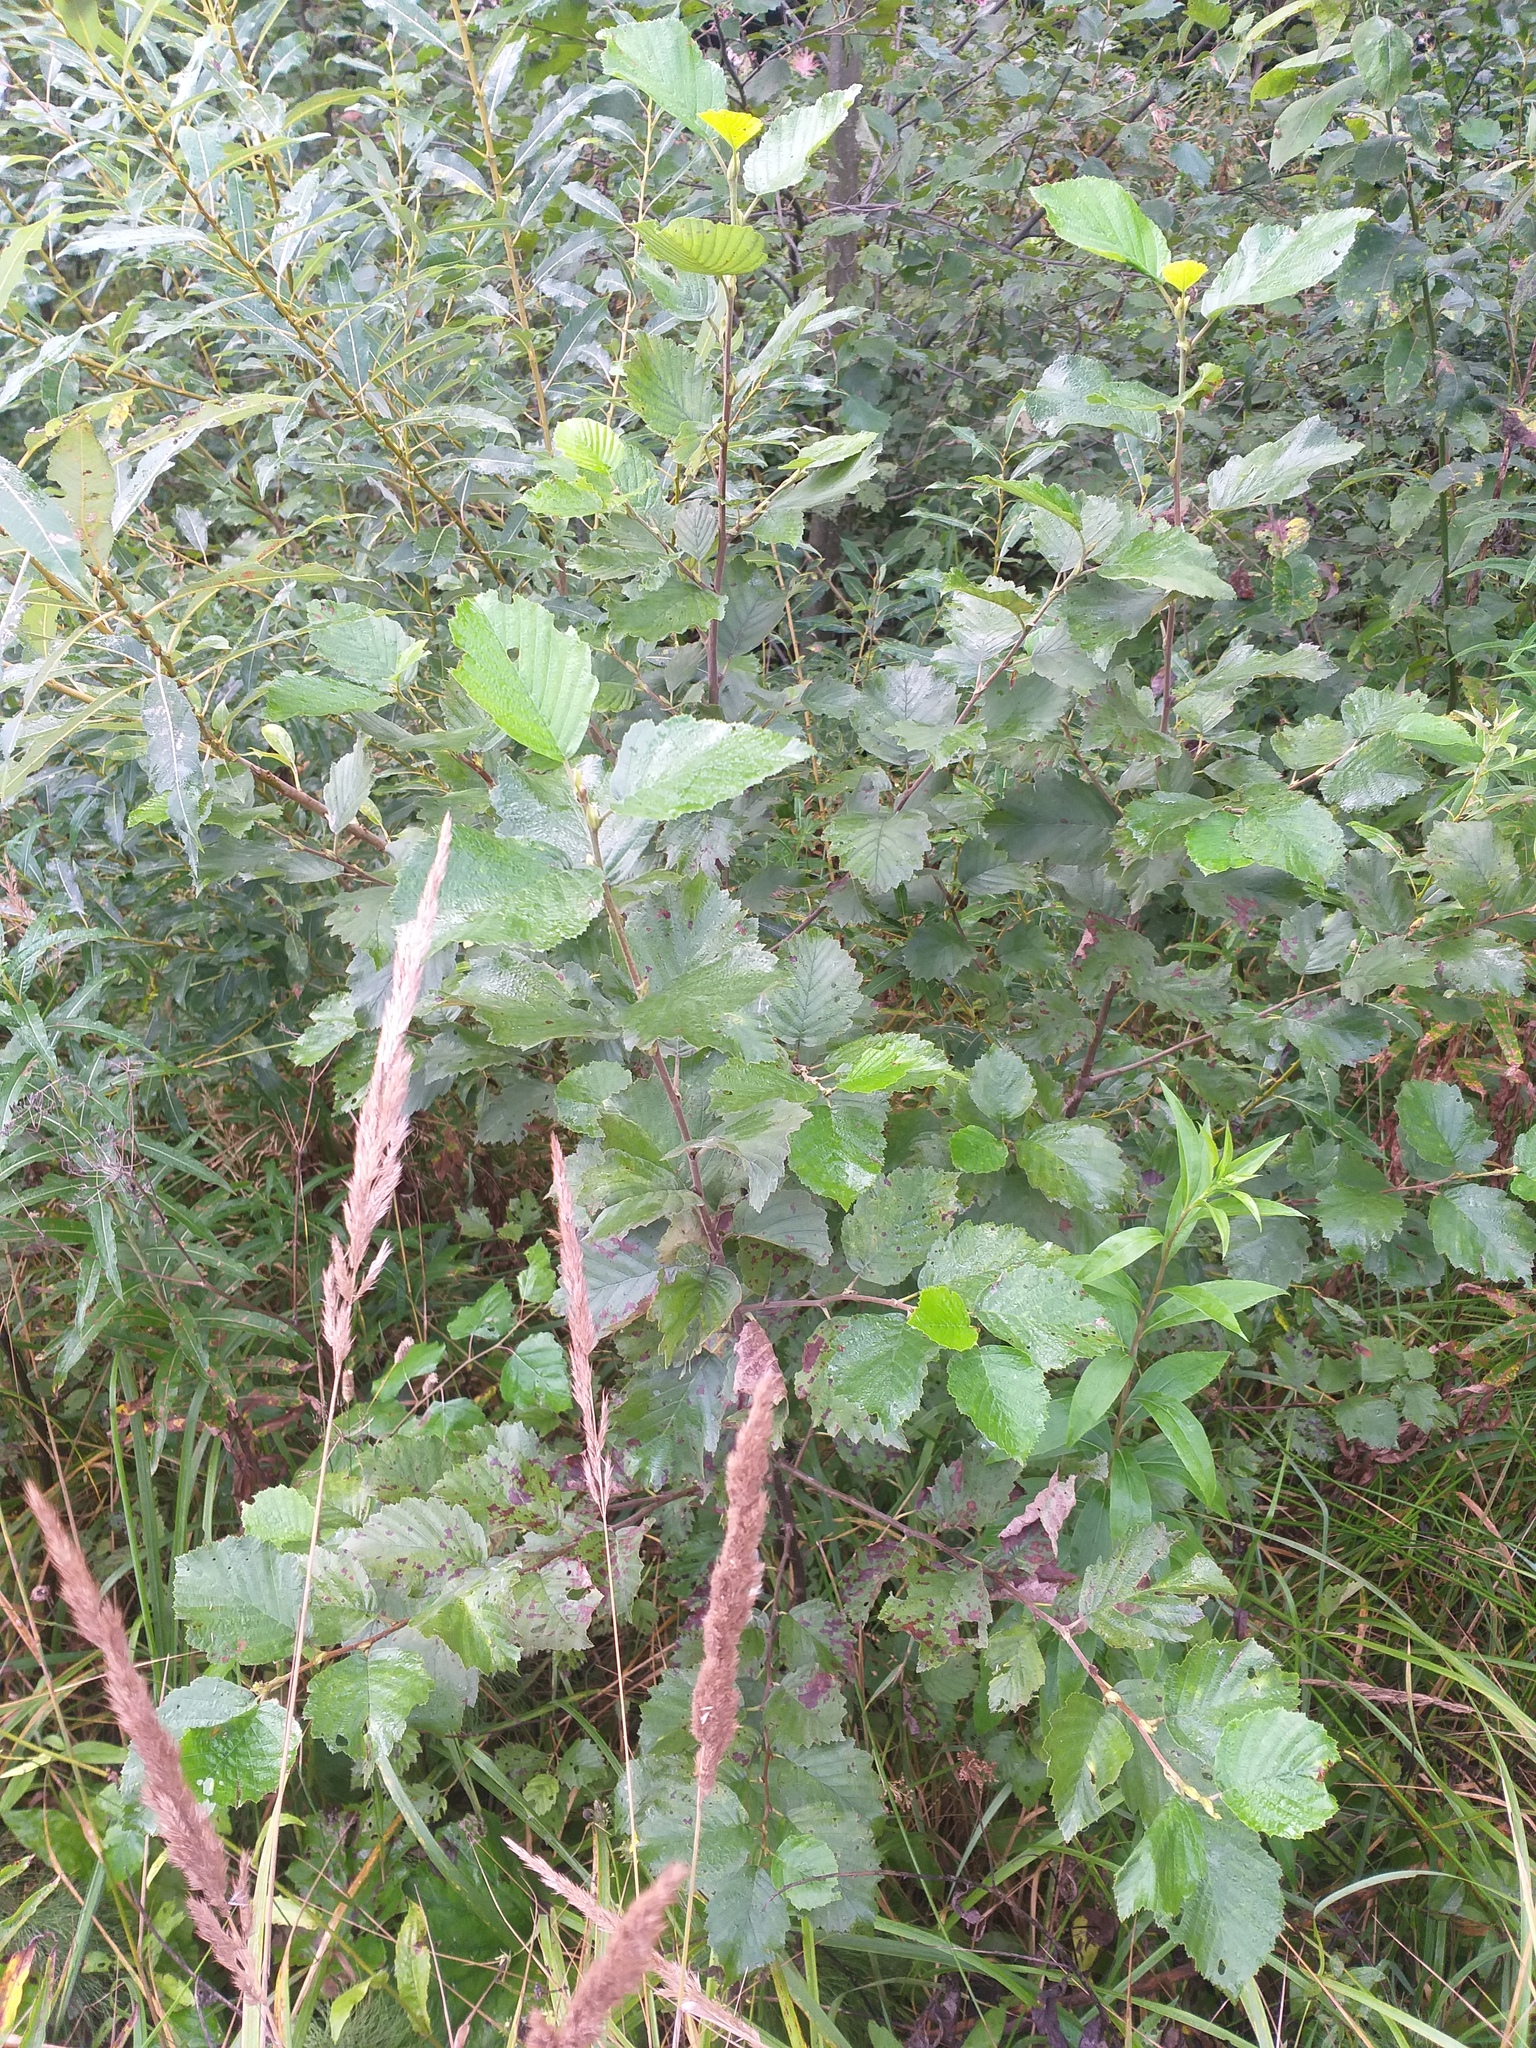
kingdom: Plantae
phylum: Tracheophyta
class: Magnoliopsida
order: Fagales
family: Betulaceae
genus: Alnus
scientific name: Alnus incana
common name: Grey alder
